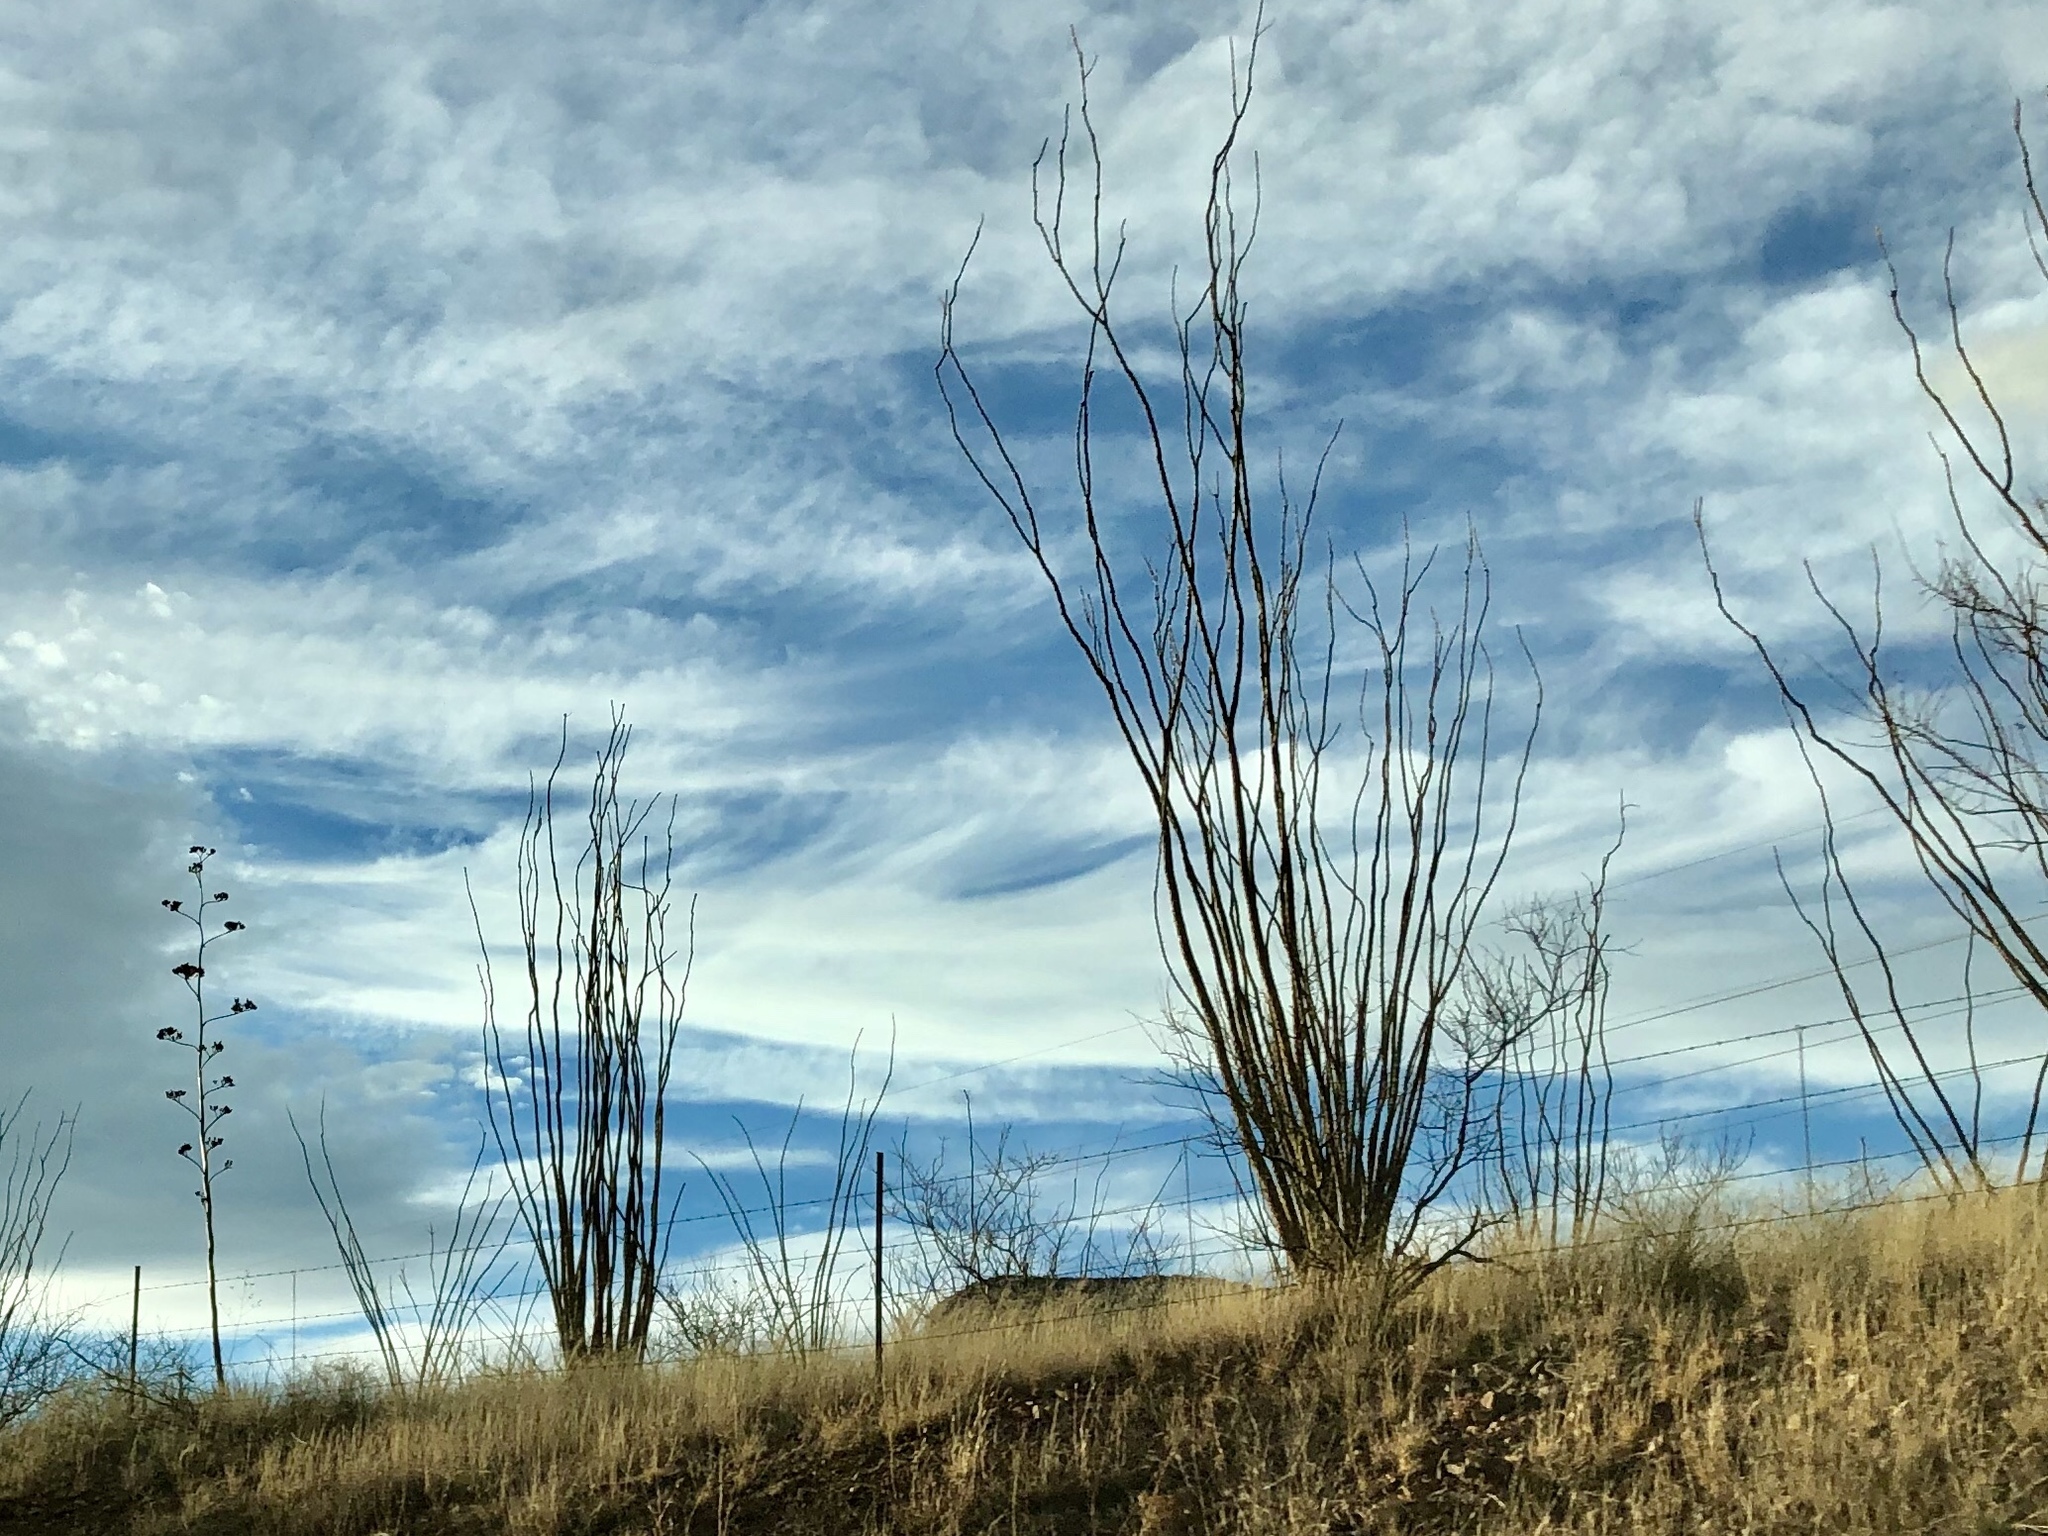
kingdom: Plantae
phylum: Tracheophyta
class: Magnoliopsida
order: Ericales
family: Fouquieriaceae
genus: Fouquieria
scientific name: Fouquieria splendens
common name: Vine-cactus
